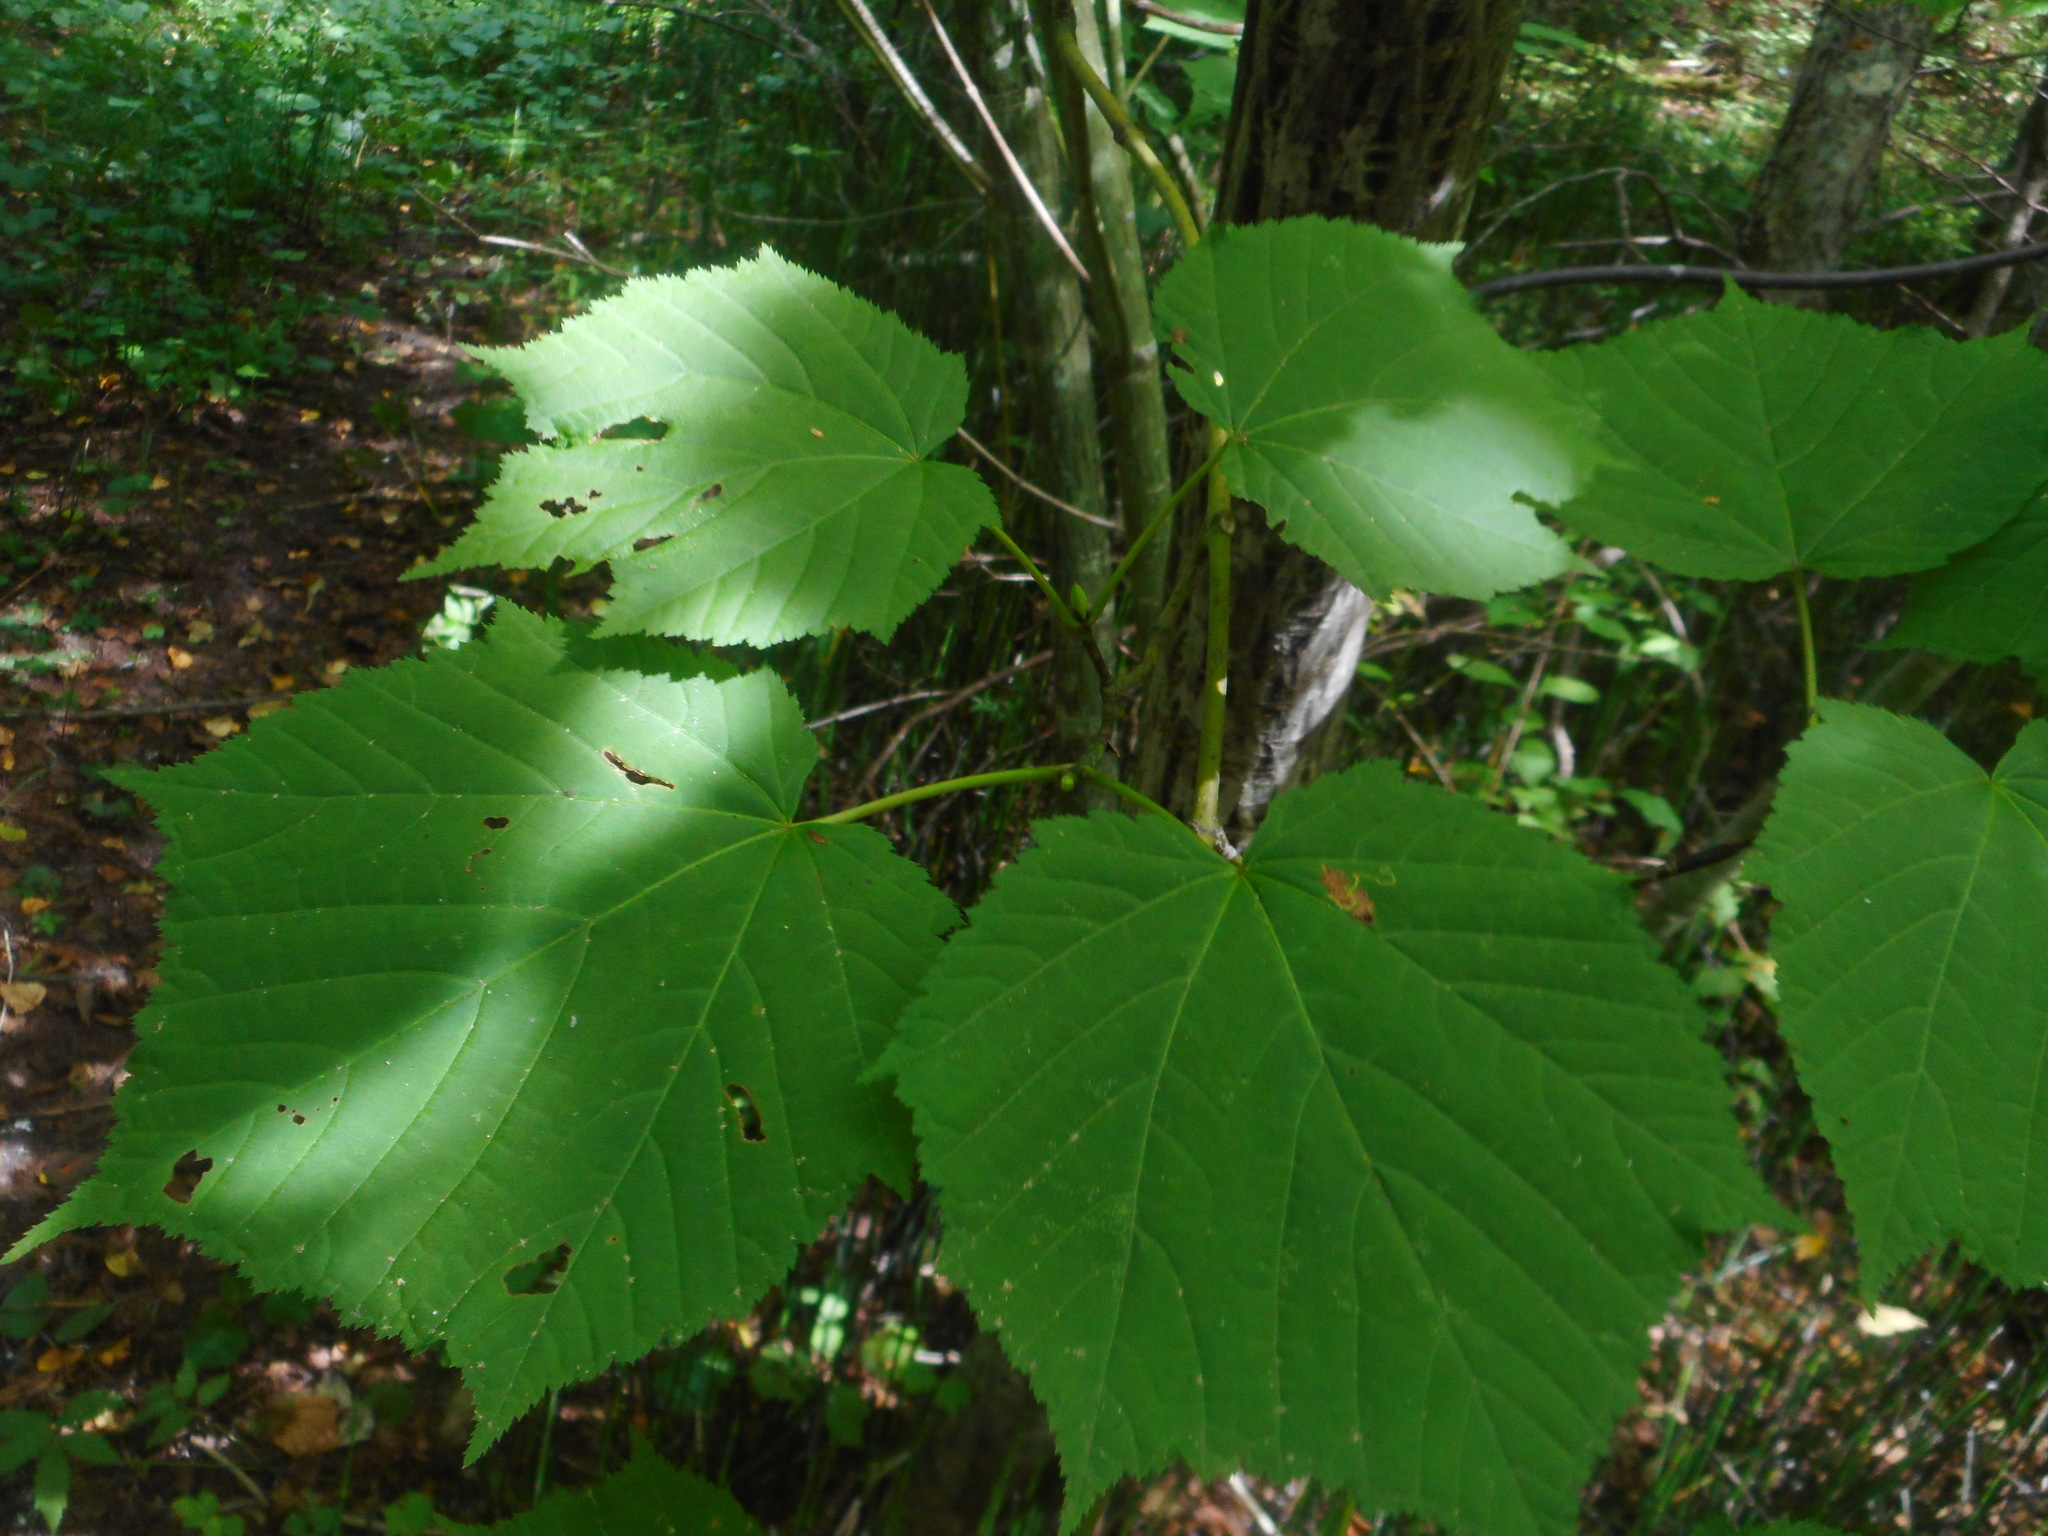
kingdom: Plantae
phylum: Tracheophyta
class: Magnoliopsida
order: Sapindales
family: Sapindaceae
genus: Acer
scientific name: Acer tegmentosum
